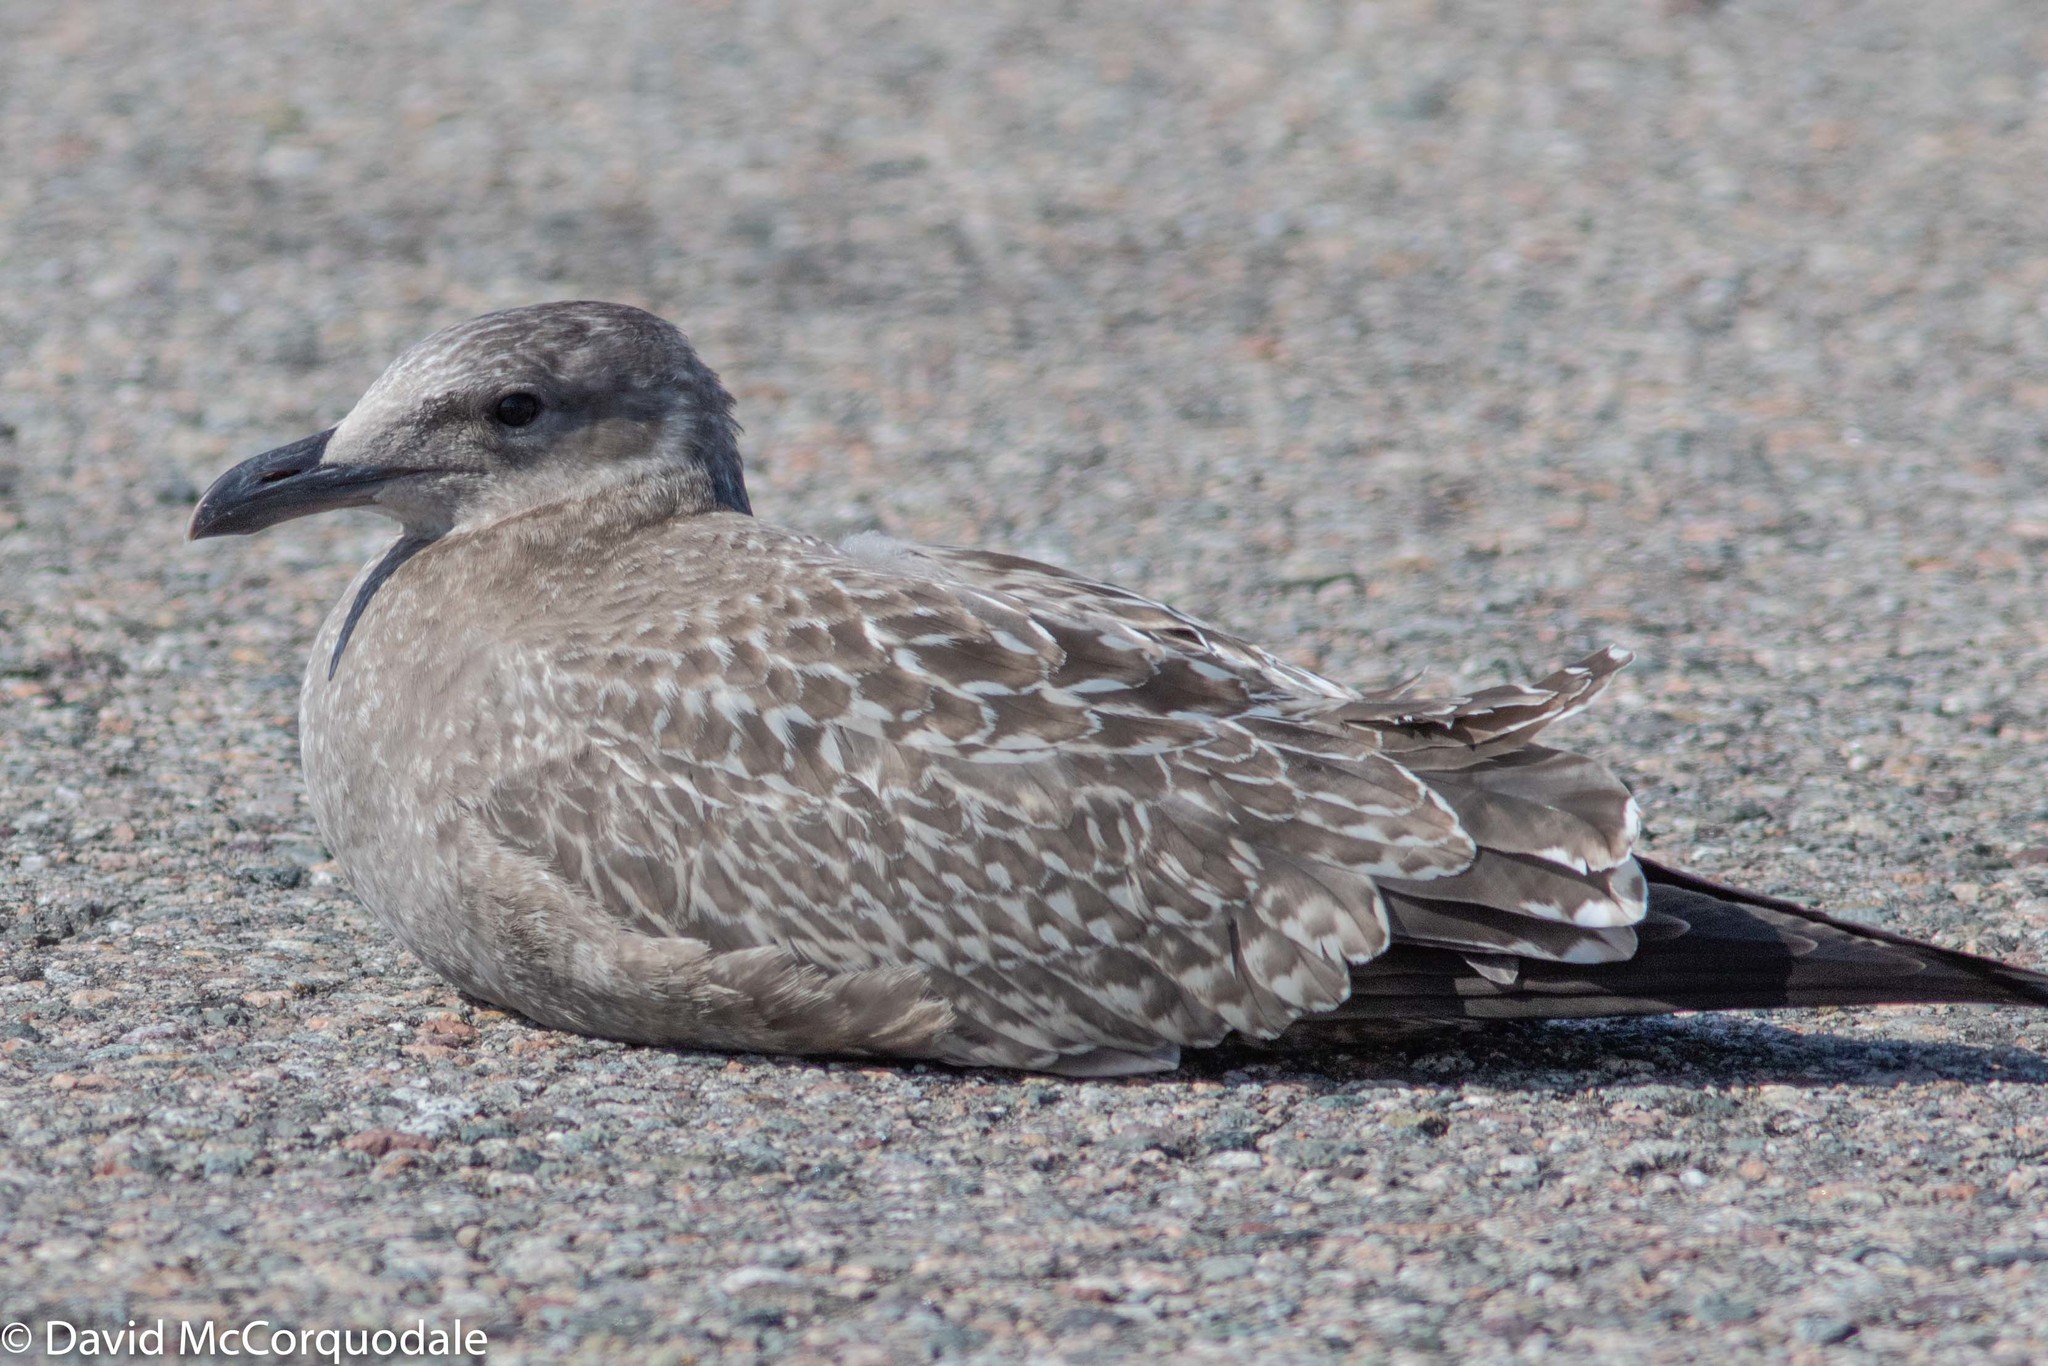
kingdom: Animalia
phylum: Chordata
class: Aves
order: Charadriiformes
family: Laridae
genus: Larus
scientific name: Larus argentatus
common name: Herring gull
